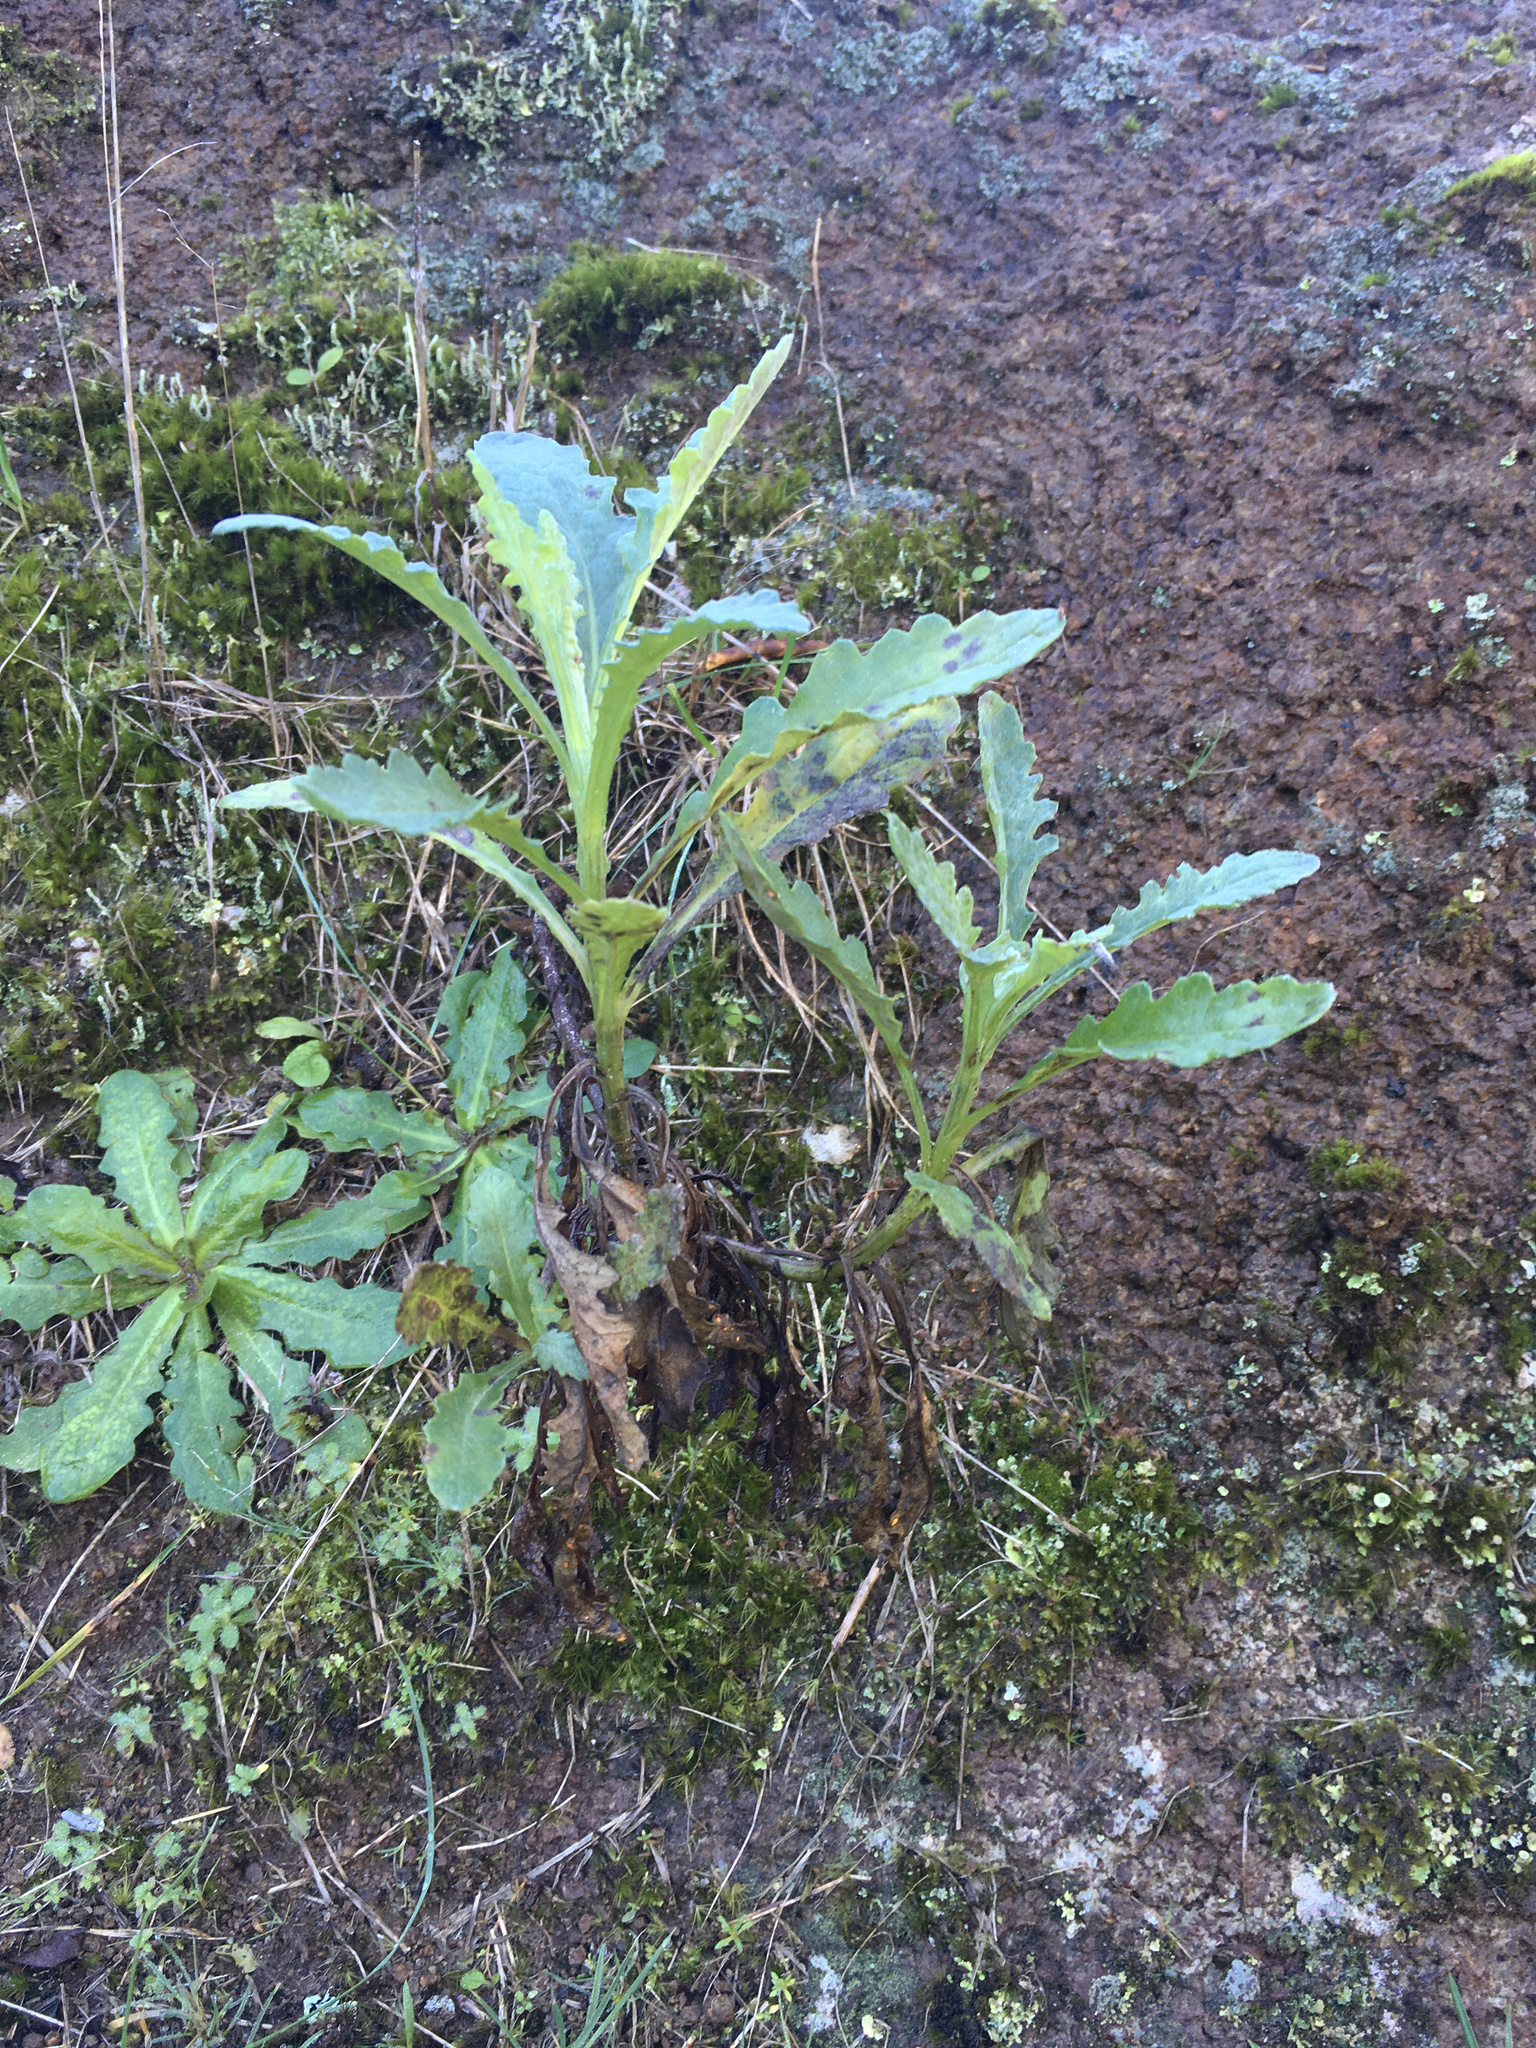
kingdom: Plantae
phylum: Tracheophyta
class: Magnoliopsida
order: Asterales
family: Asteraceae
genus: Senecio
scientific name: Senecio glomeratus
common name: Cutleaf burnweed
